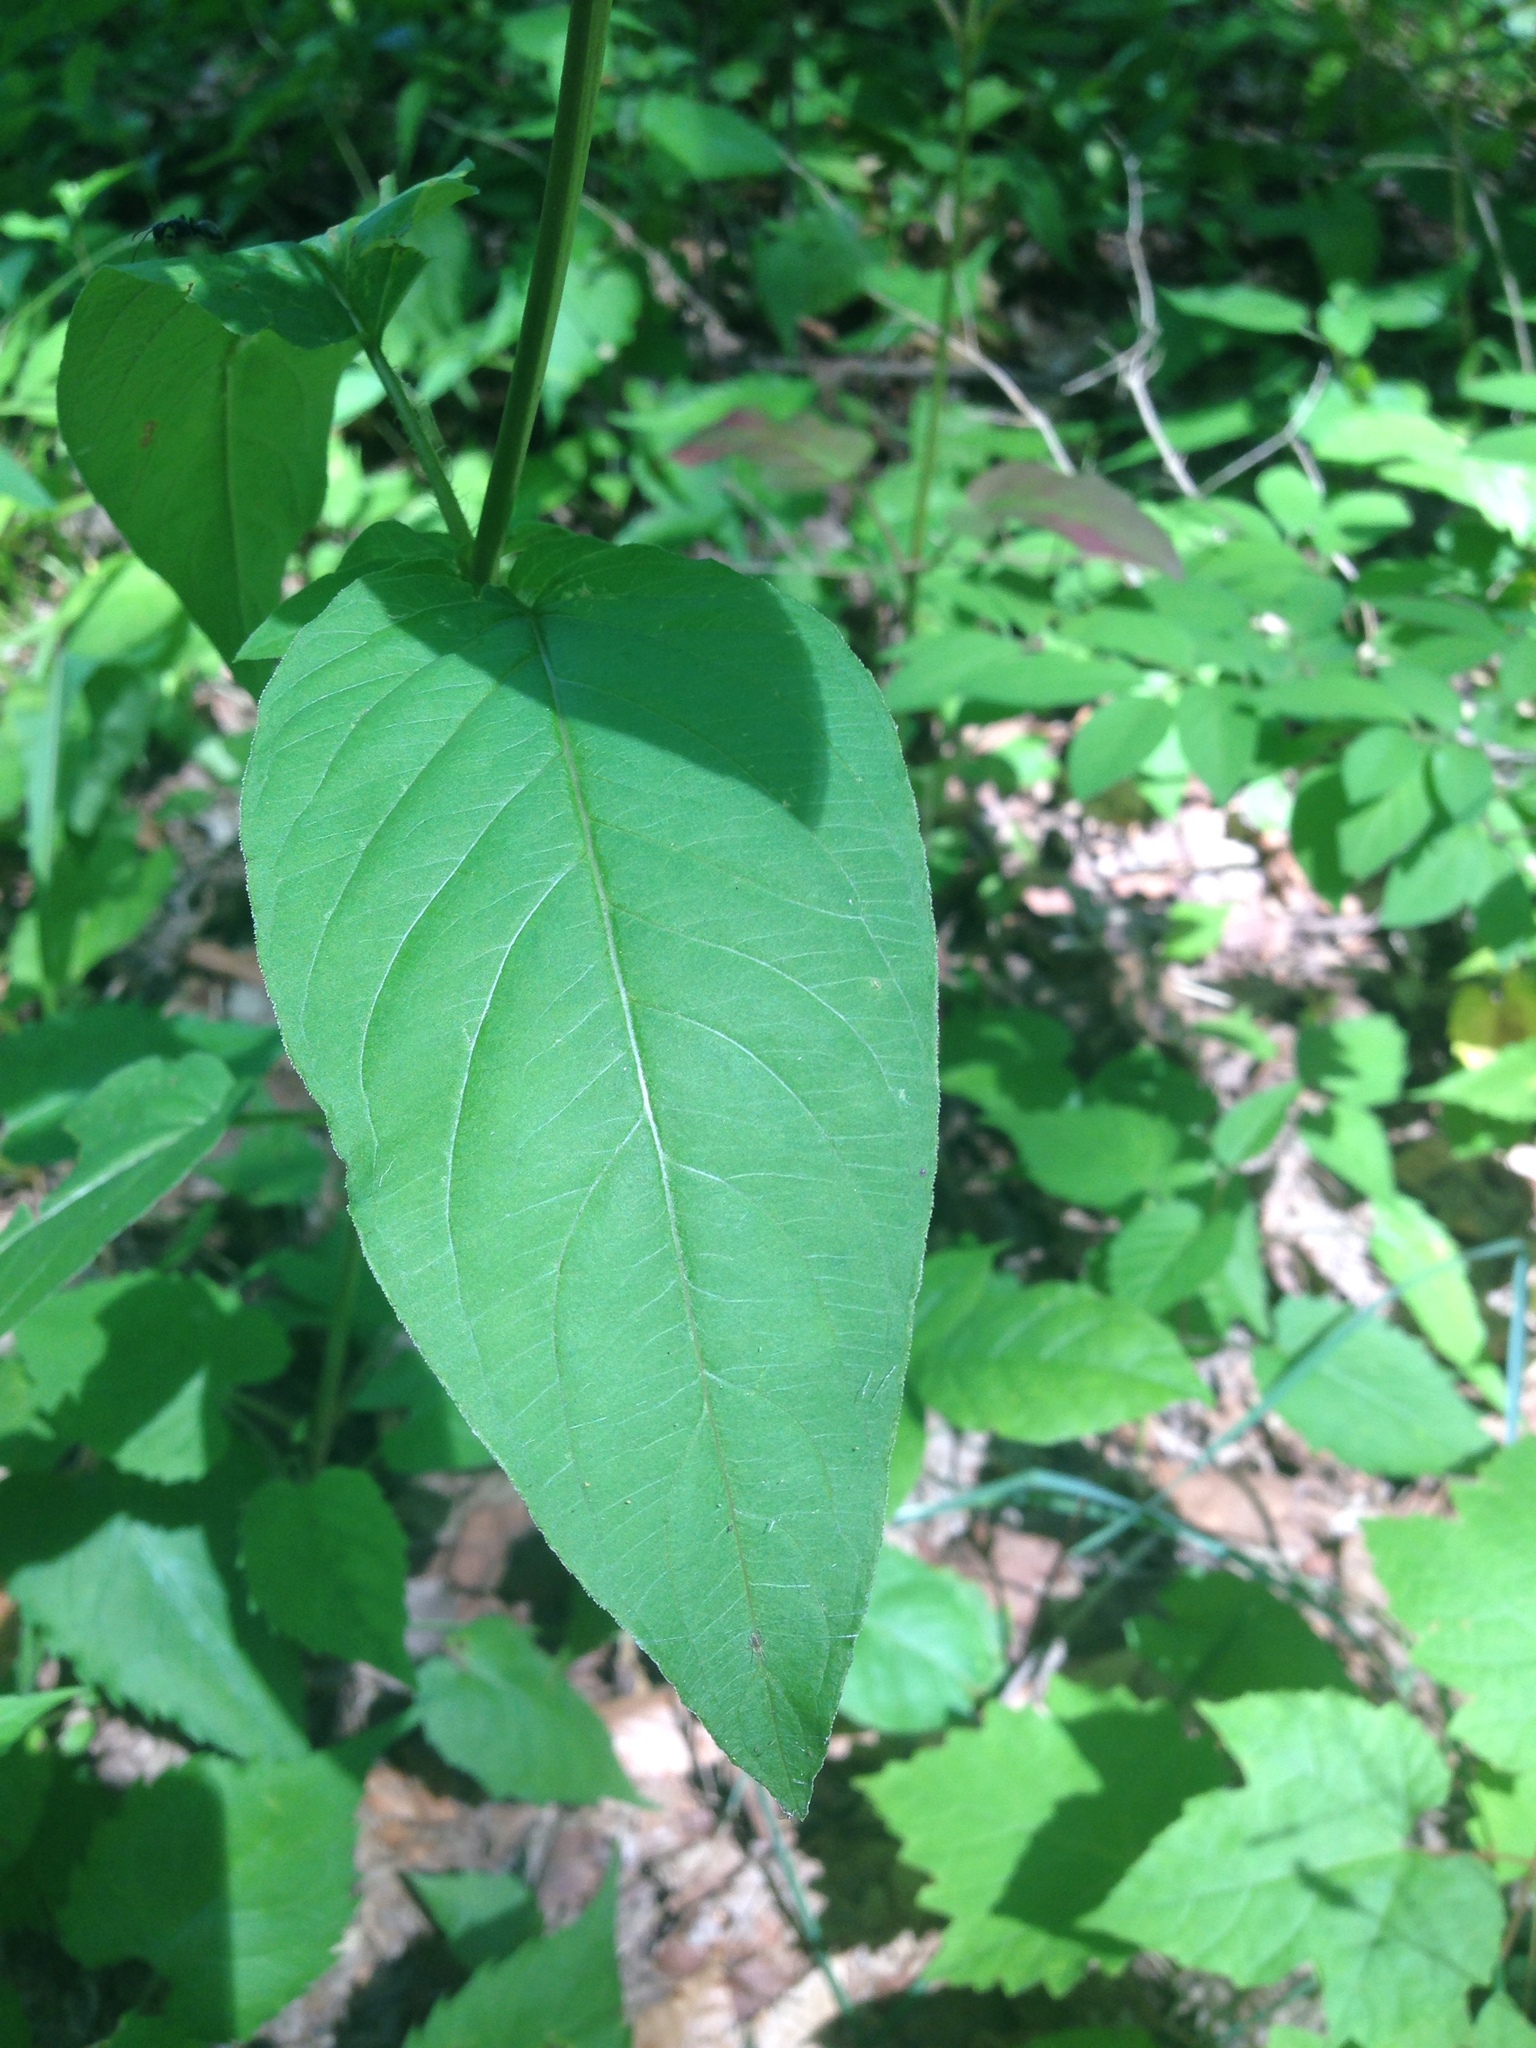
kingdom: Plantae
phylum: Tracheophyta
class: Magnoliopsida
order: Ericales
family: Primulaceae
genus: Lysimachia
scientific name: Lysimachia ciliata
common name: Fringed loosestrife
